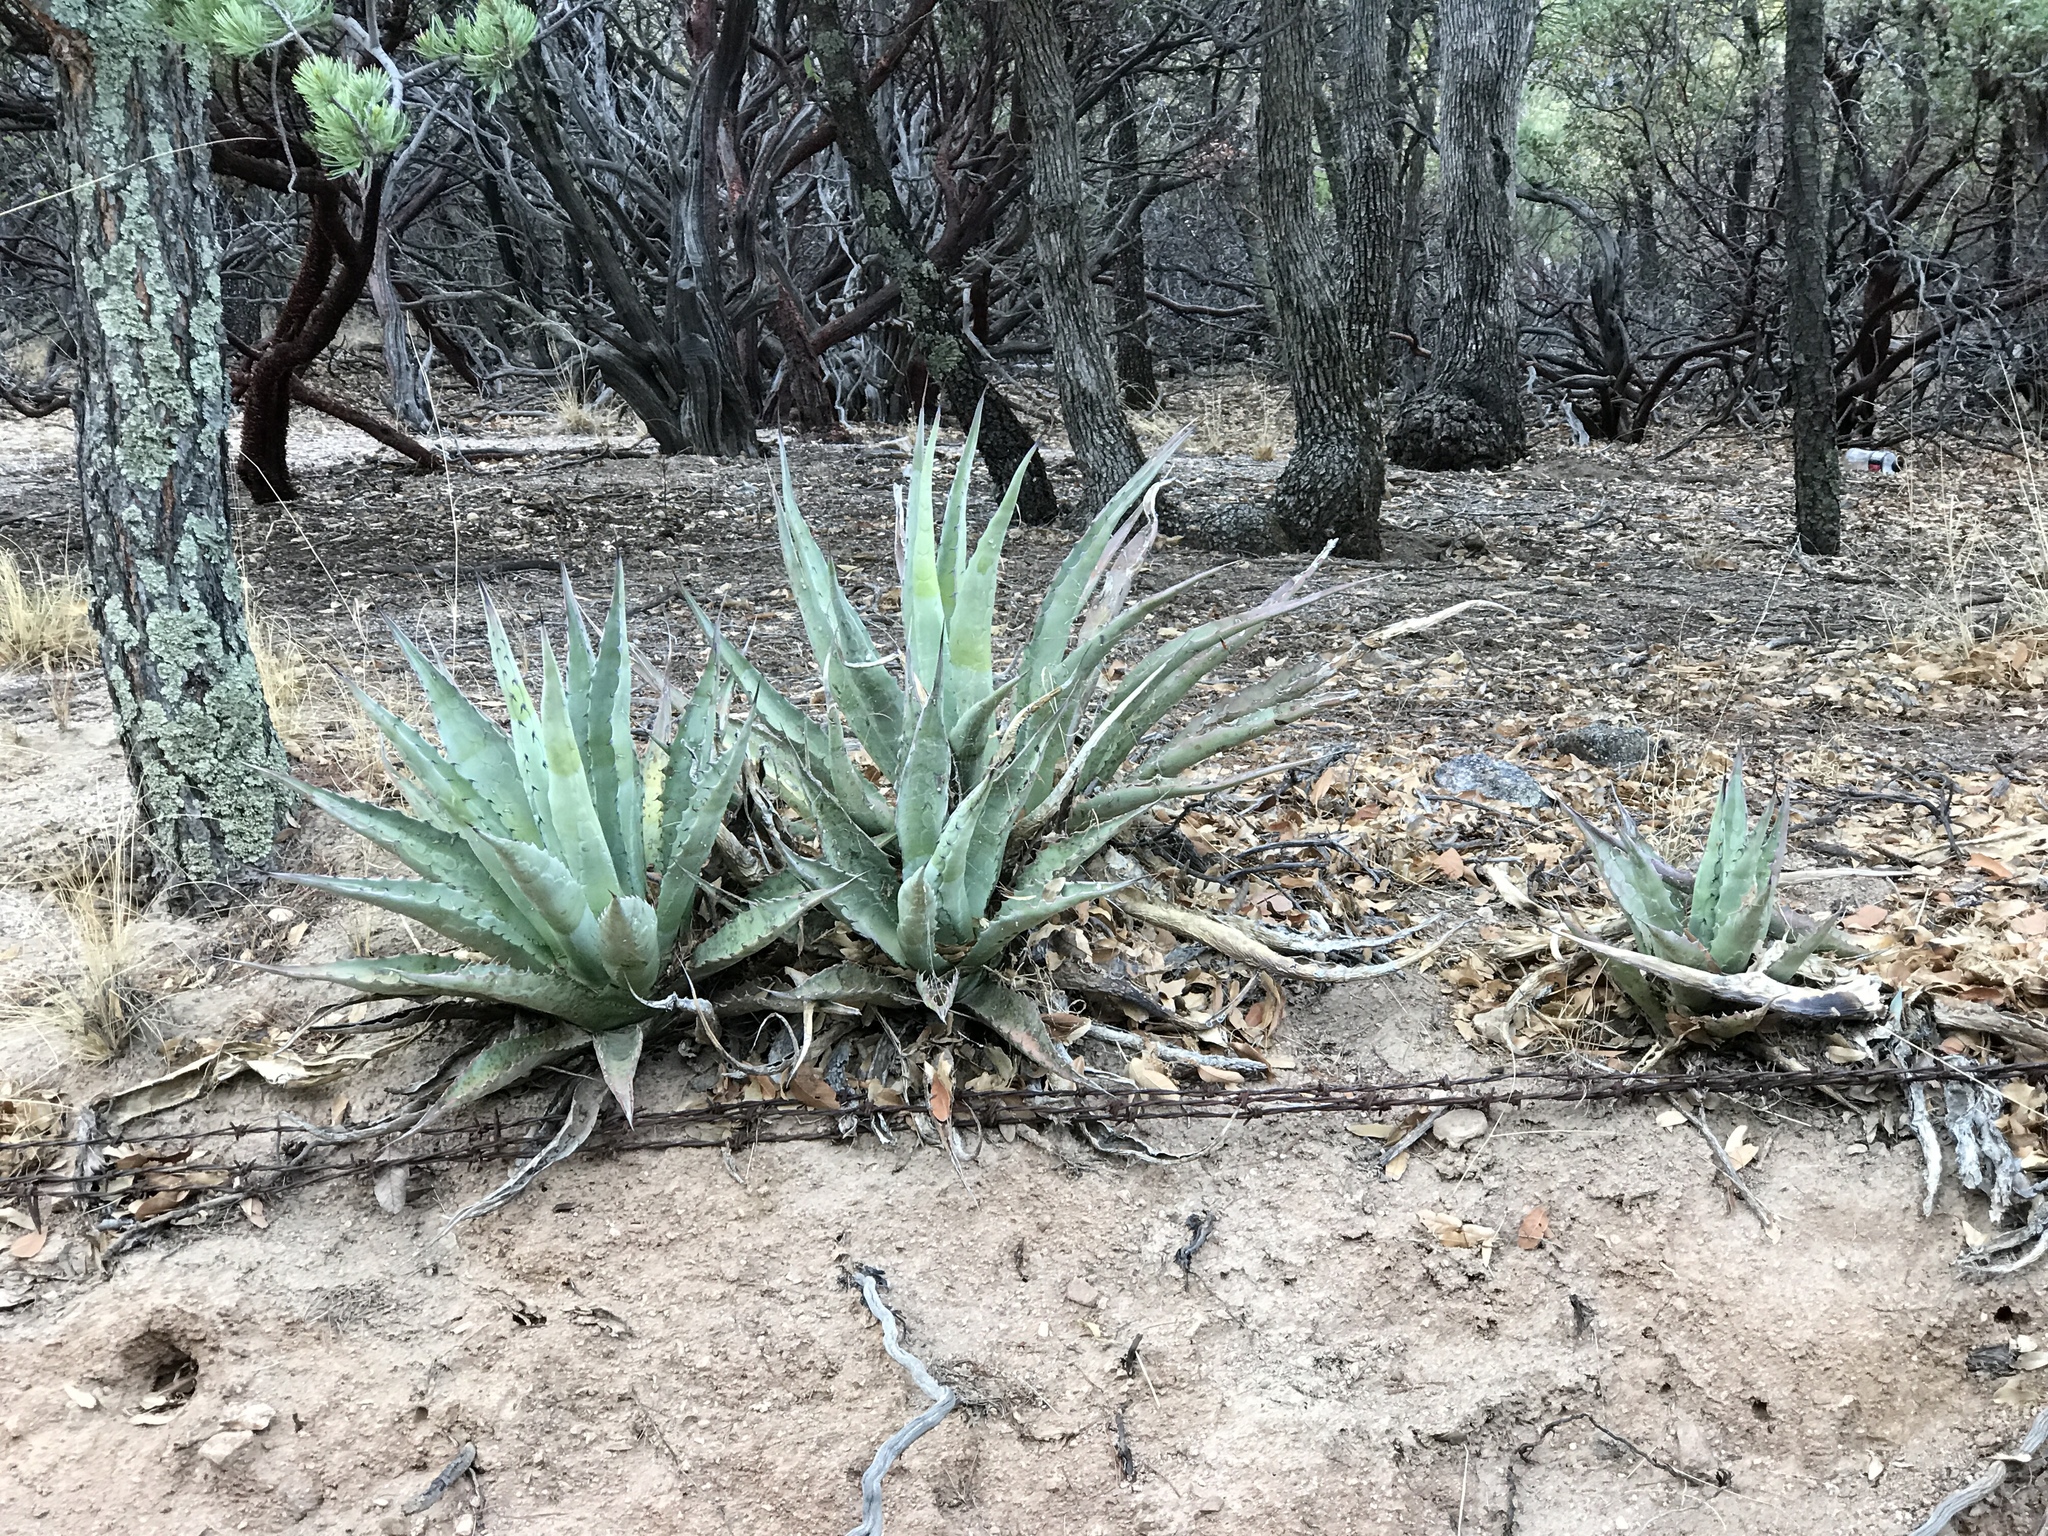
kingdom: Plantae
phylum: Tracheophyta
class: Liliopsida
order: Asparagales
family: Asparagaceae
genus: Agave
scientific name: Agave palmeri
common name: Palmer agave
